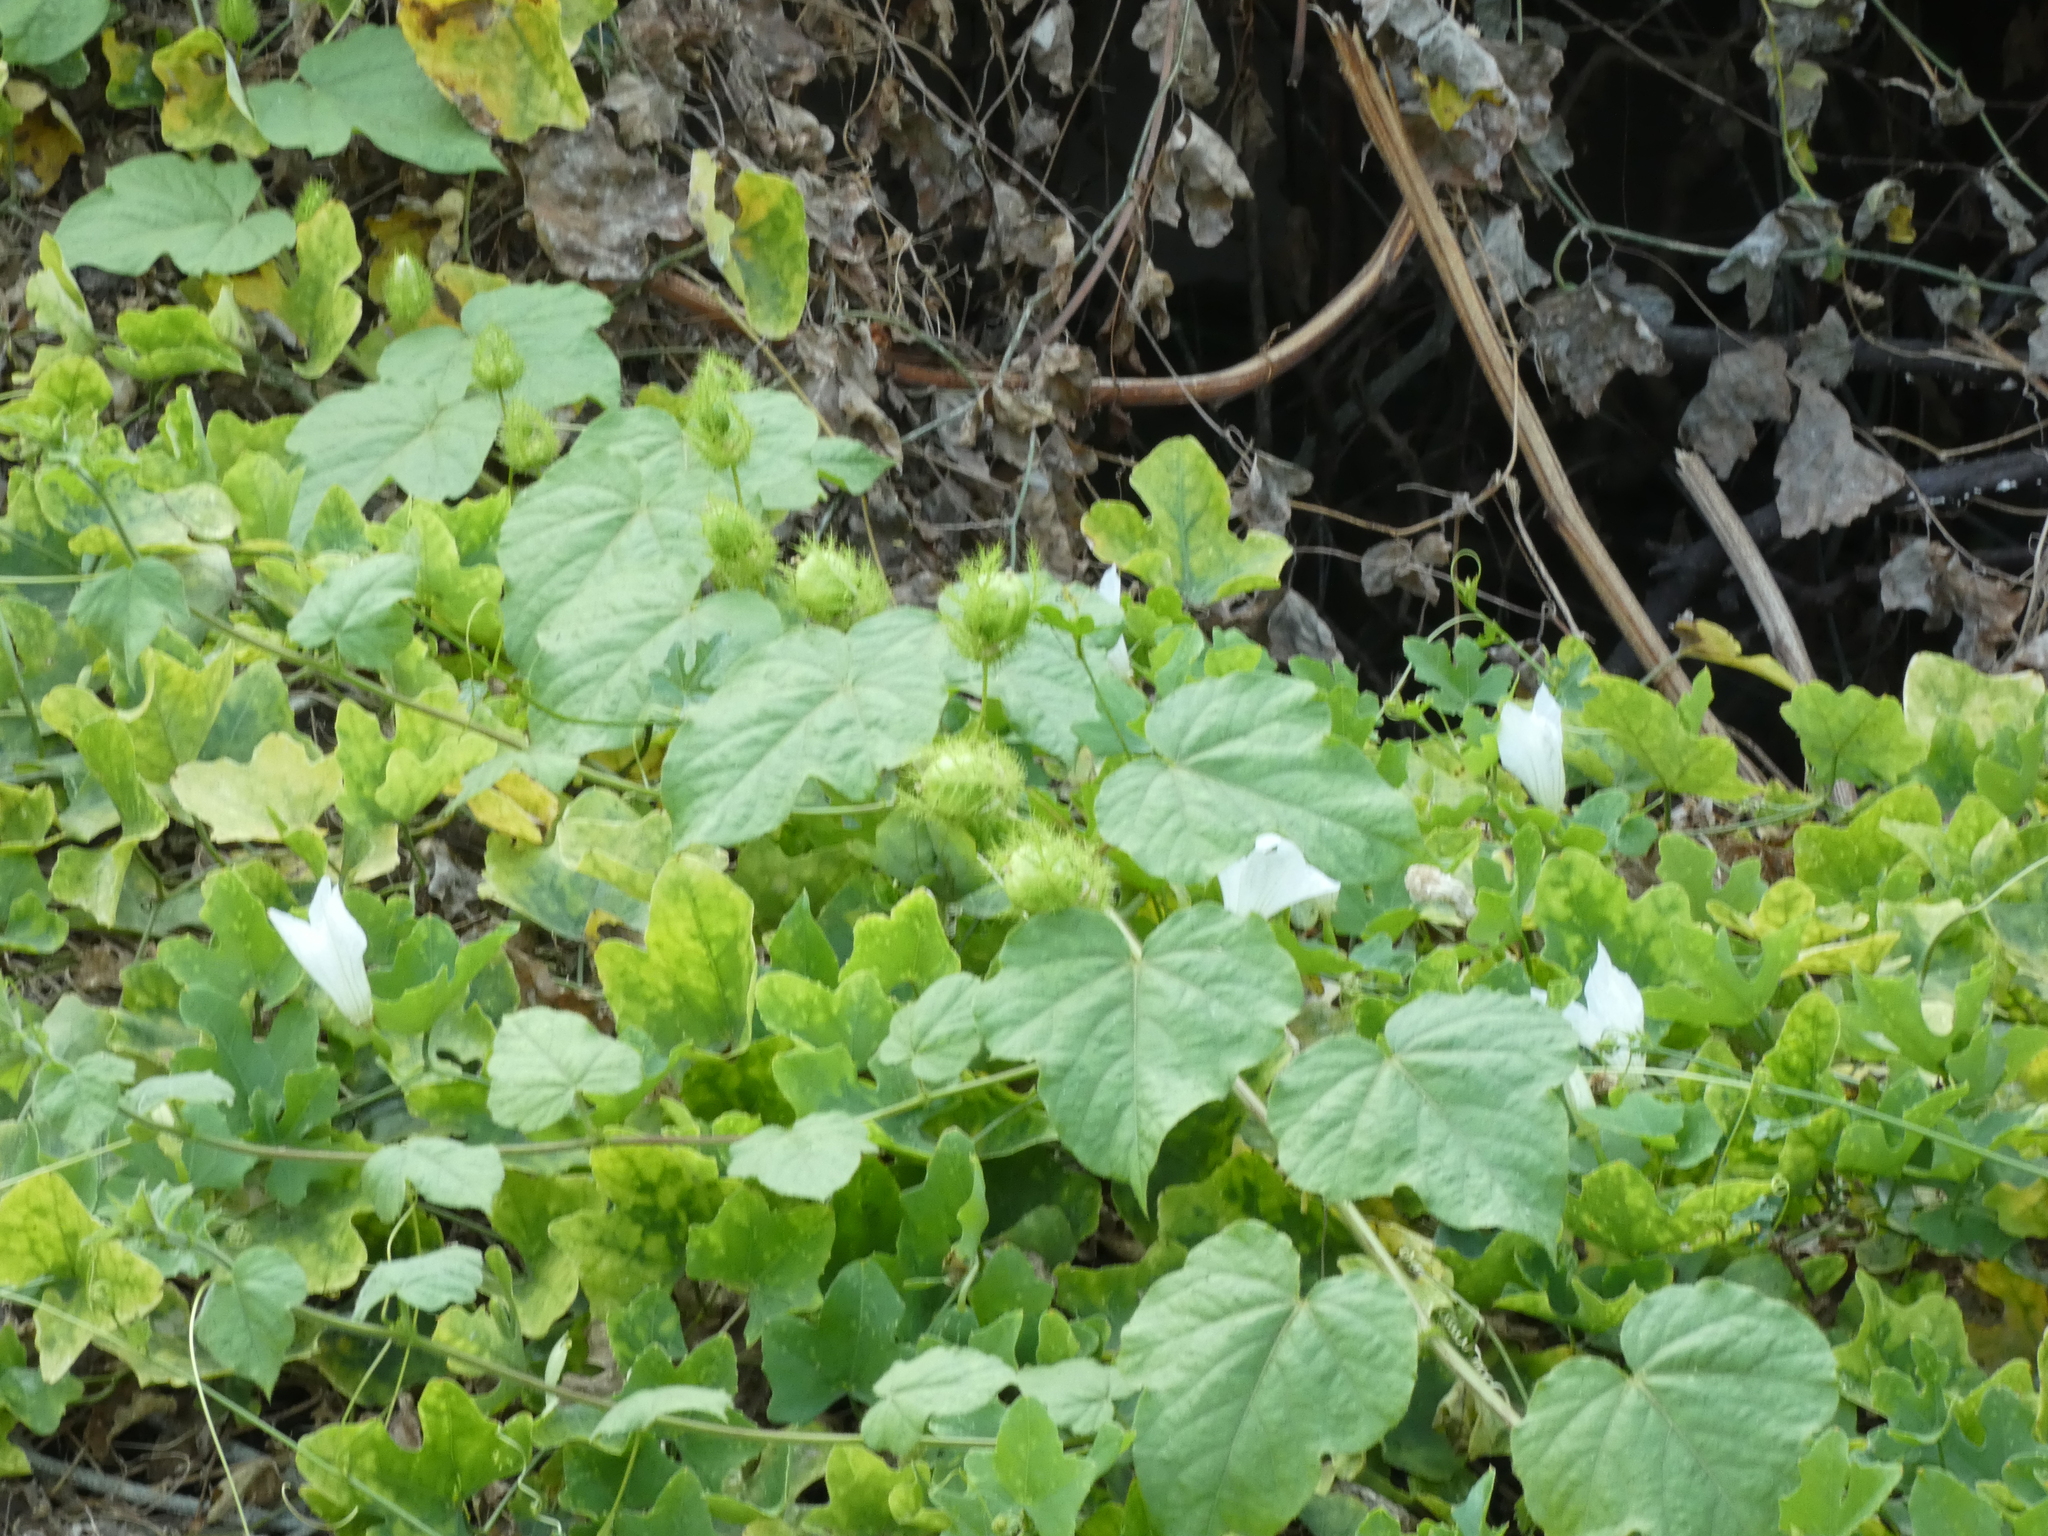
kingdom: Plantae
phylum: Tracheophyta
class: Magnoliopsida
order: Cucurbitales
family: Cucurbitaceae
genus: Coccinia
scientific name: Coccinia grandis
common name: Ivy gourd
